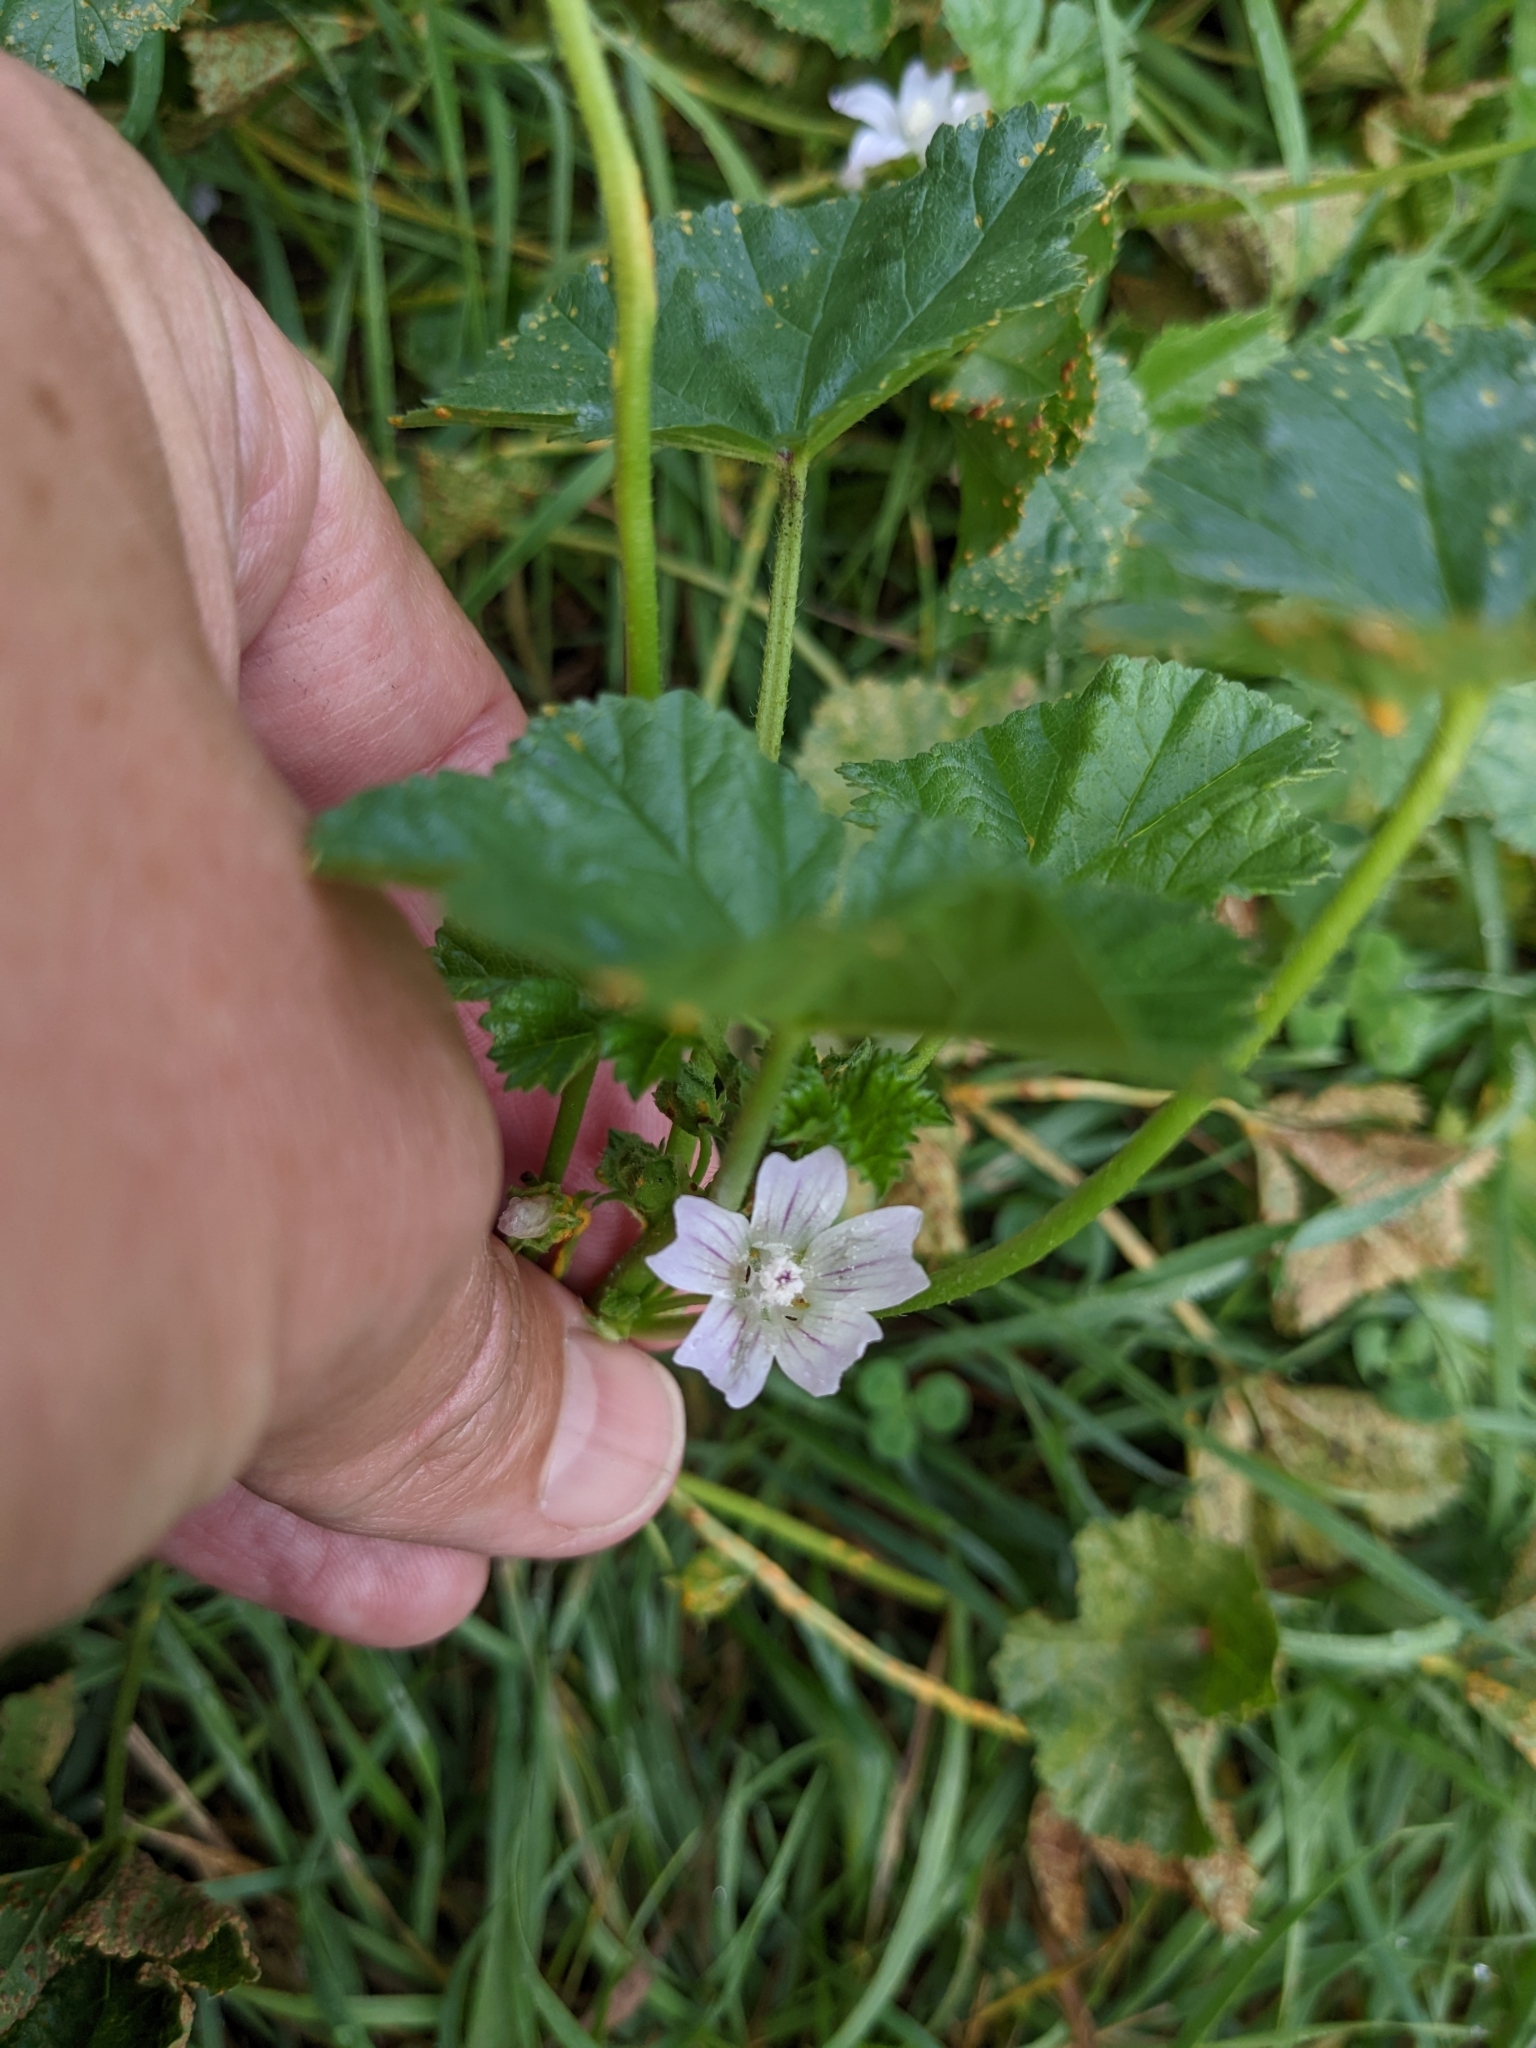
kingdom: Plantae
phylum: Tracheophyta
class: Magnoliopsida
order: Malvales
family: Malvaceae
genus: Malva
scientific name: Malva neglecta
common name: Common mallow
